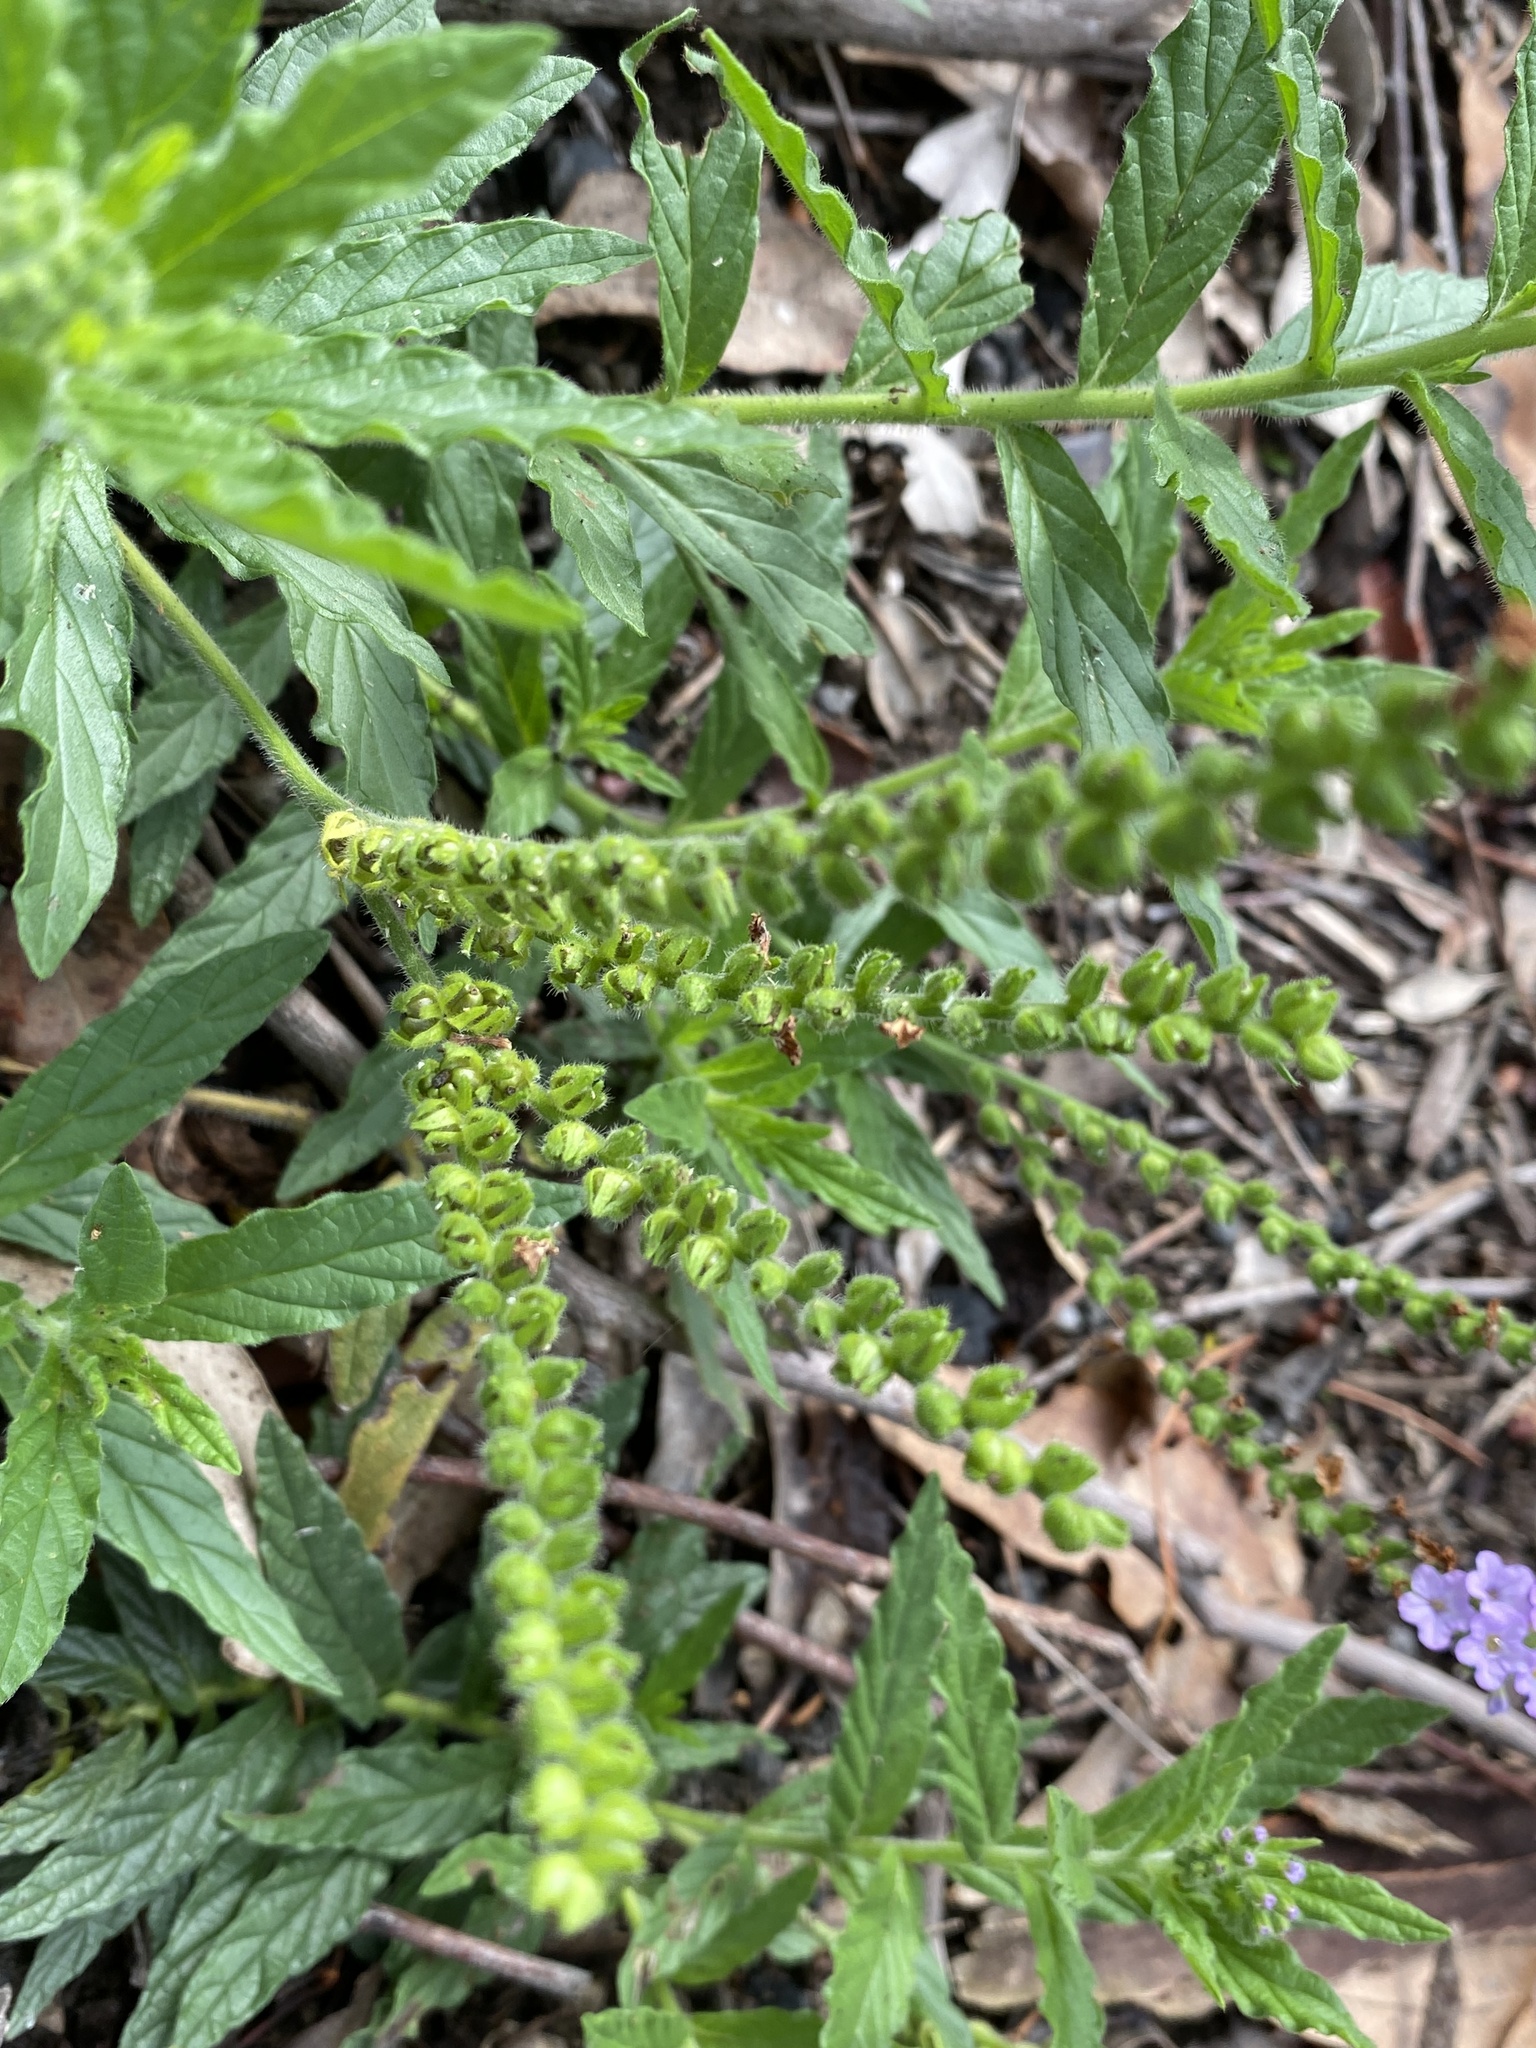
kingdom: Plantae
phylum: Tracheophyta
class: Magnoliopsida
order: Boraginales
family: Heliotropiaceae
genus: Heliotropium
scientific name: Heliotropium amplexicaule
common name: Clasping heliotrope
